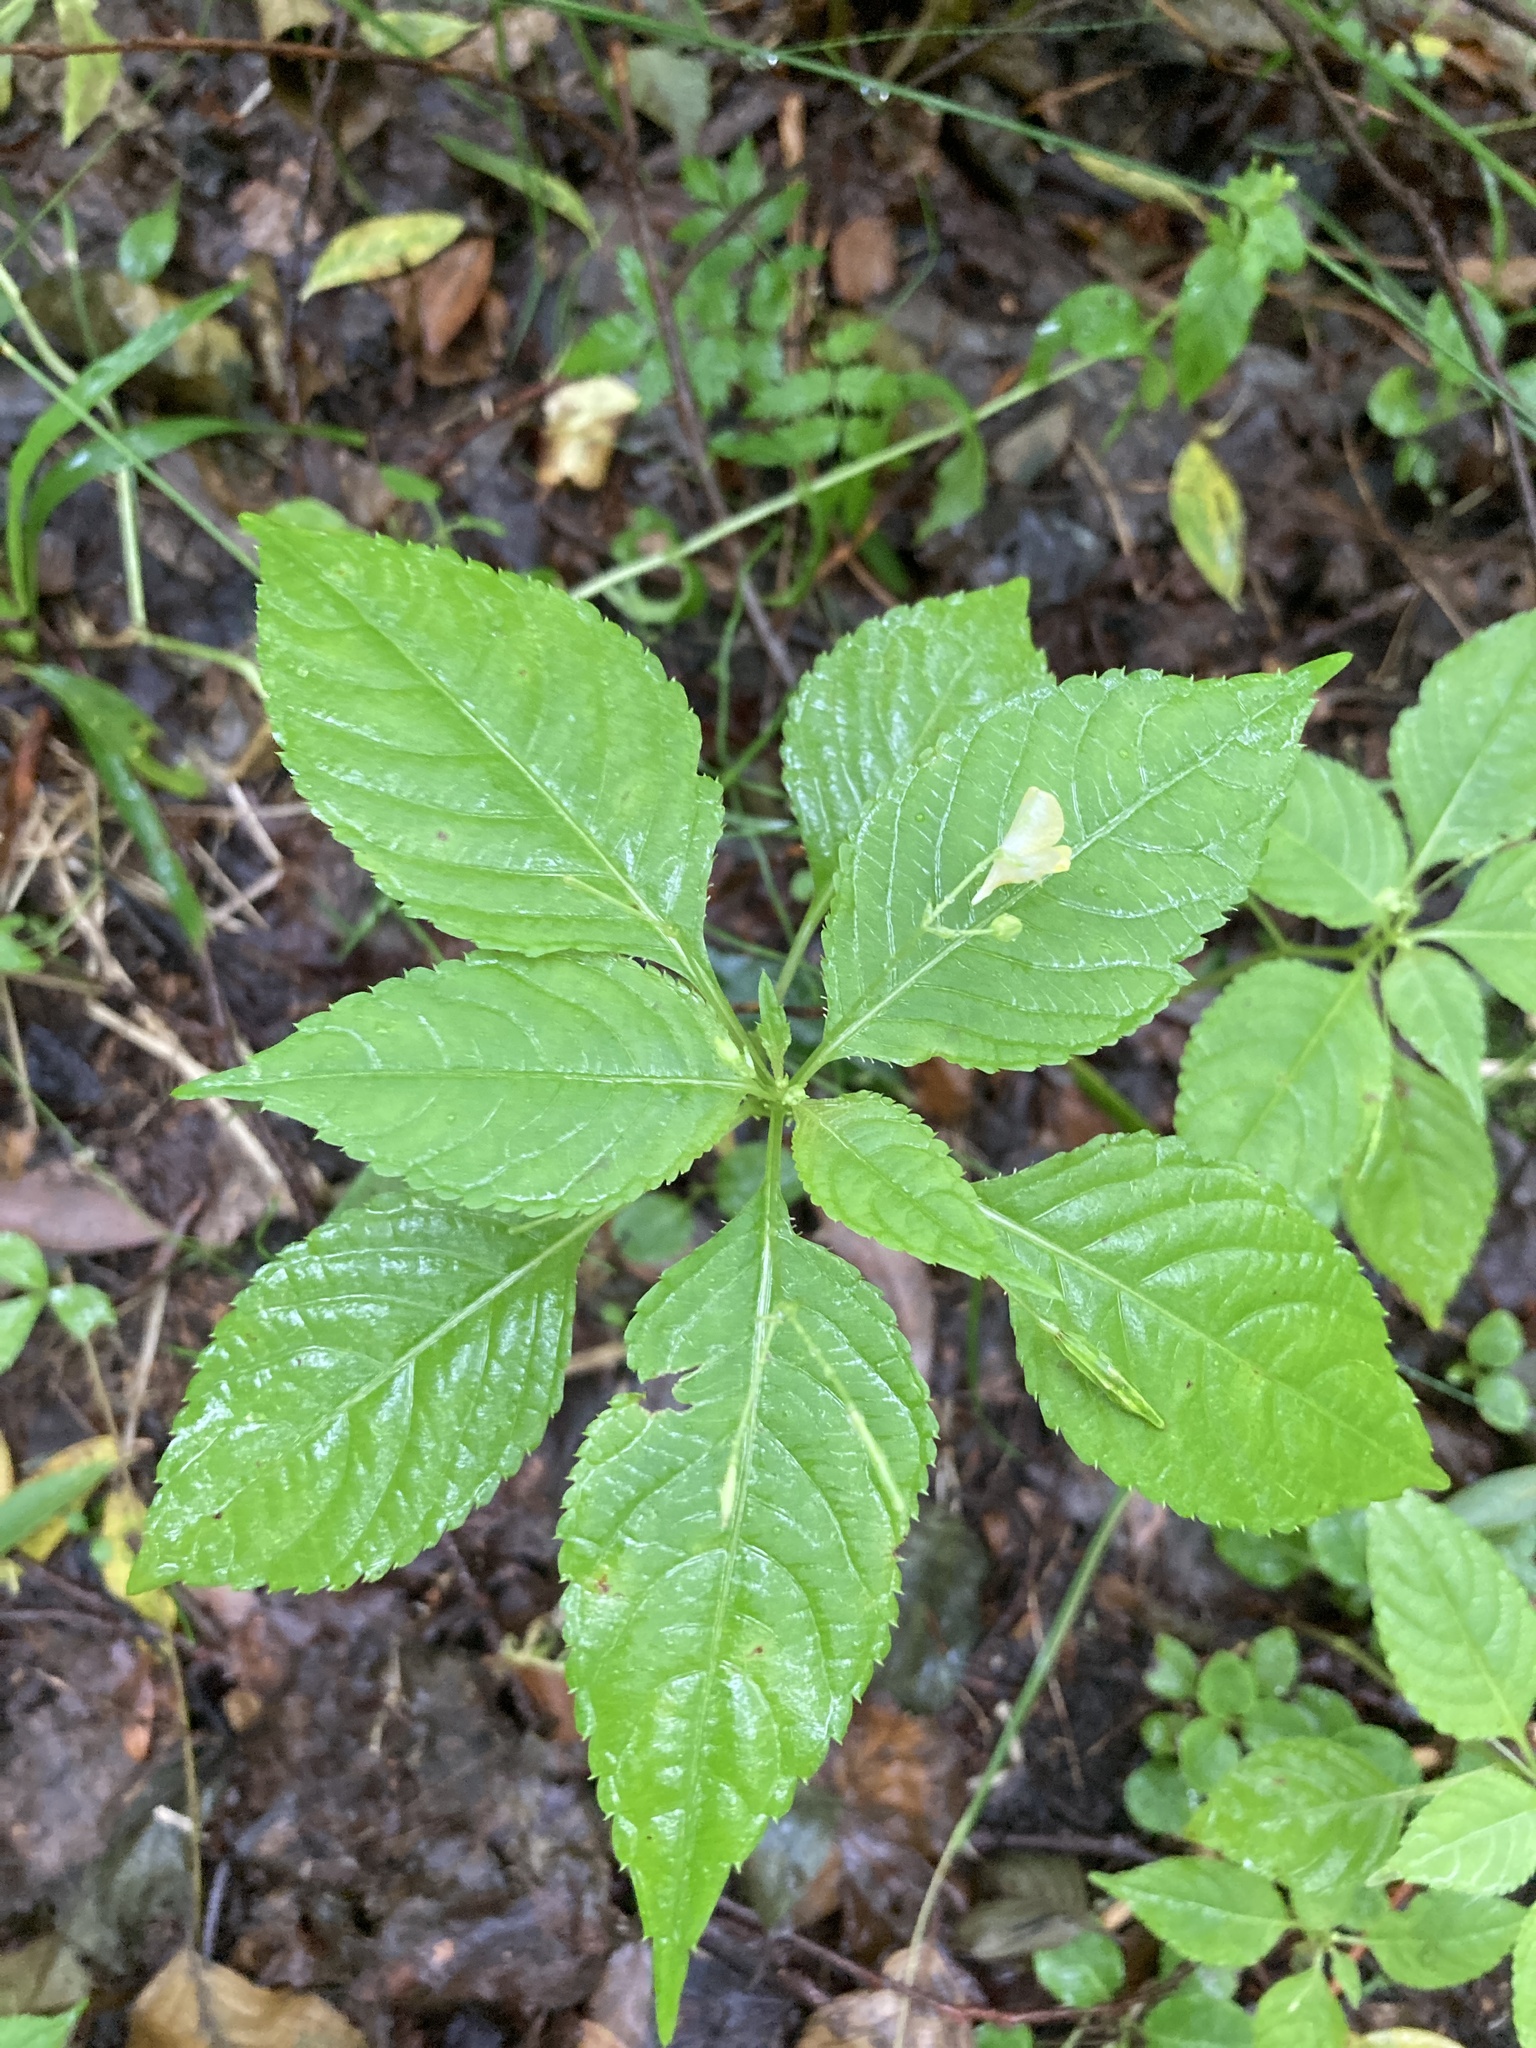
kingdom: Plantae
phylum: Tracheophyta
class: Magnoliopsida
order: Ericales
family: Balsaminaceae
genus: Impatiens
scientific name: Impatiens parviflora
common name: Small balsam
